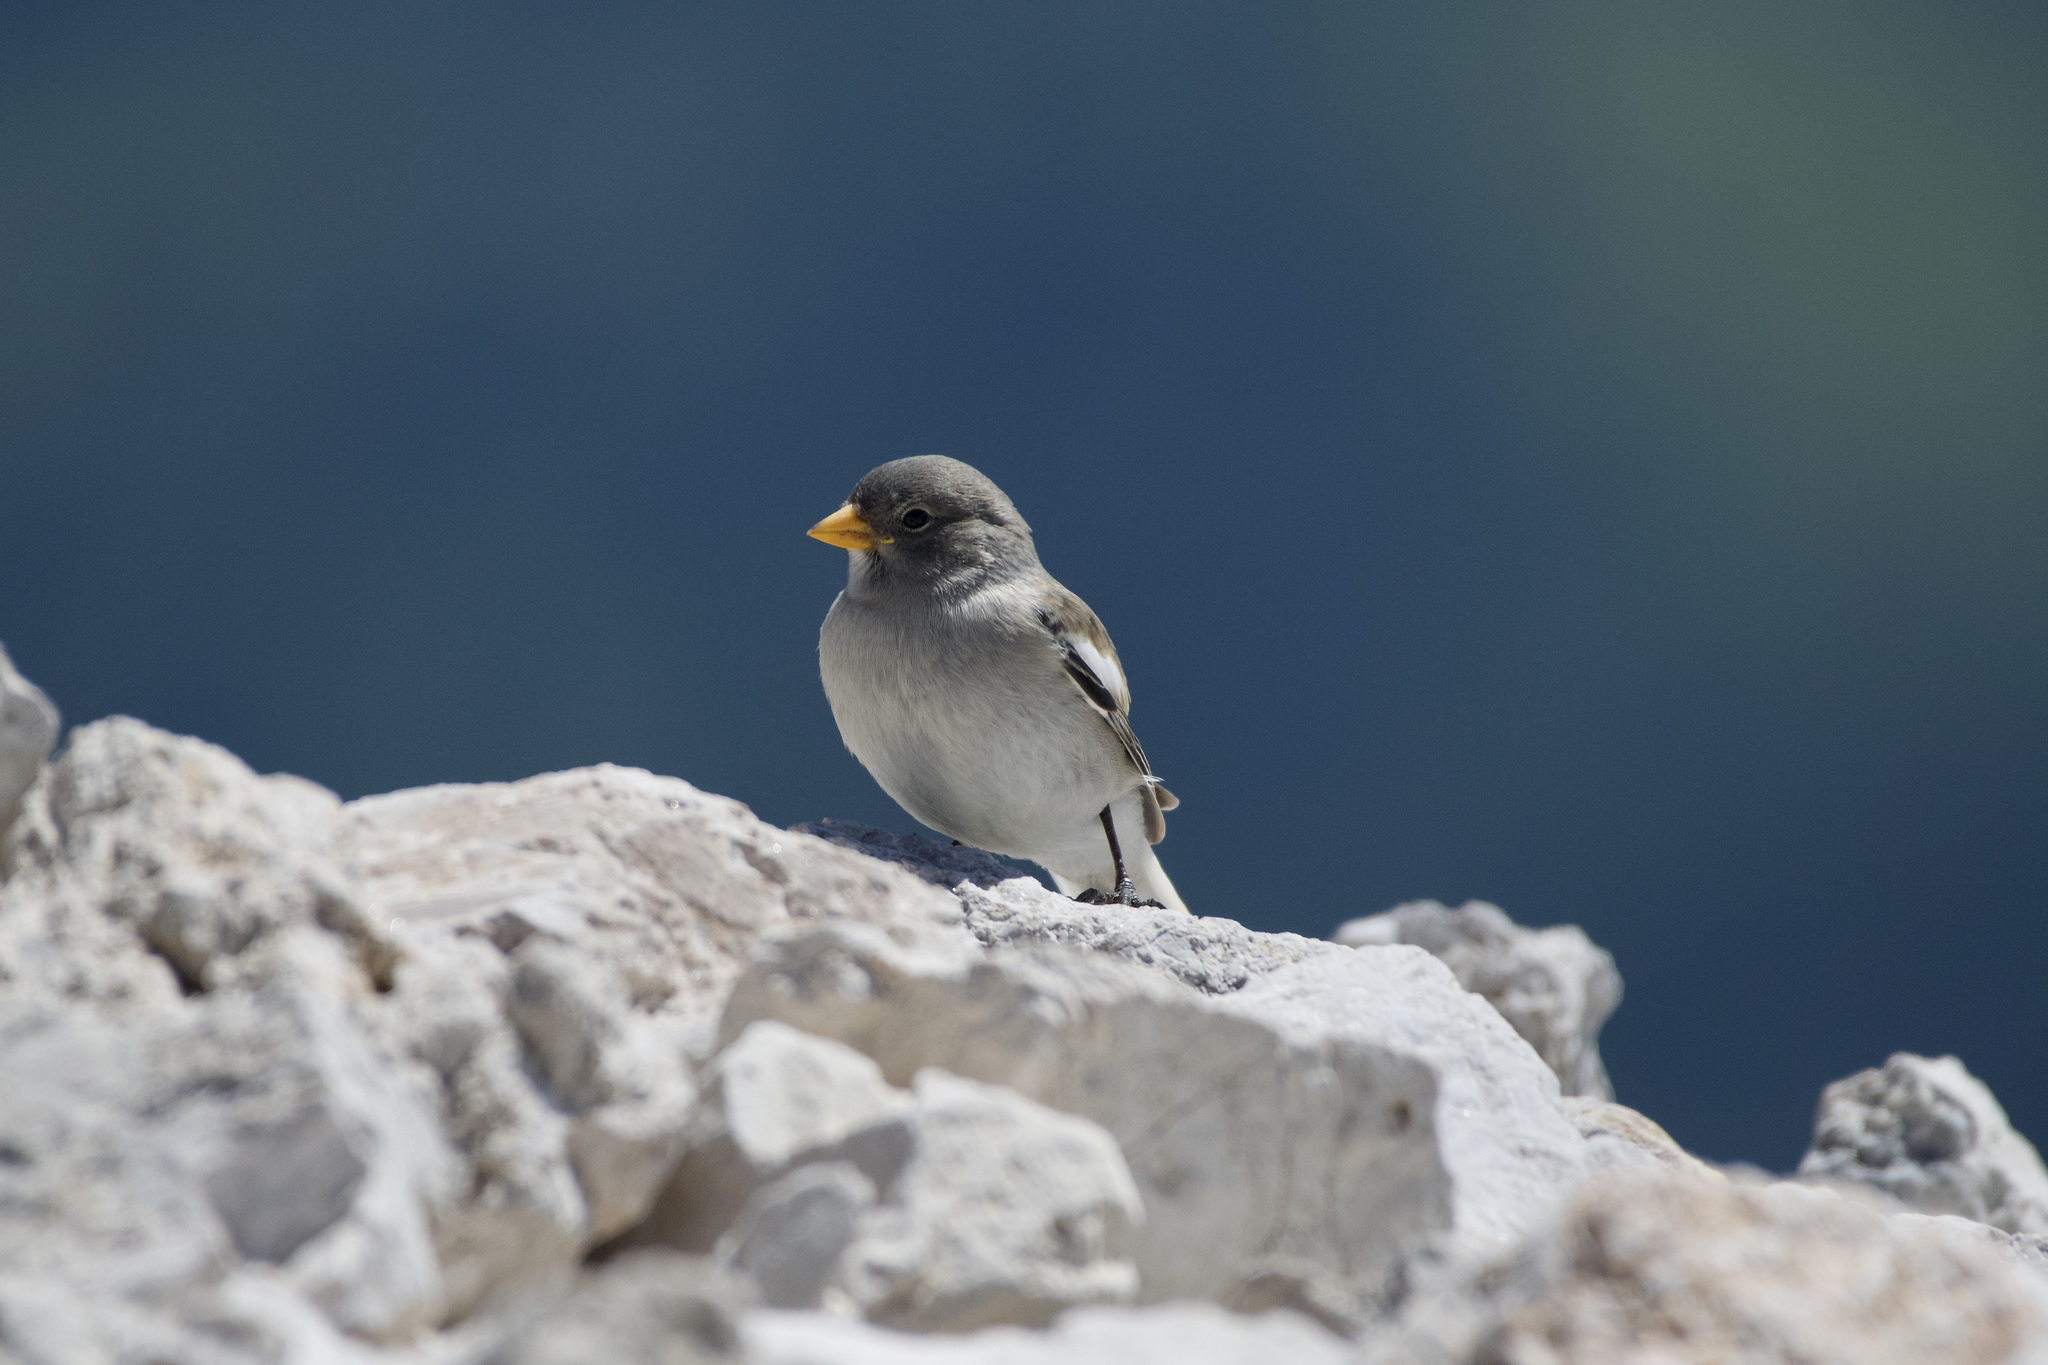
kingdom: Animalia
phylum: Chordata
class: Aves
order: Passeriformes
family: Passeridae
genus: Montifringilla
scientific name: Montifringilla nivalis
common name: White-winged snowfinch
